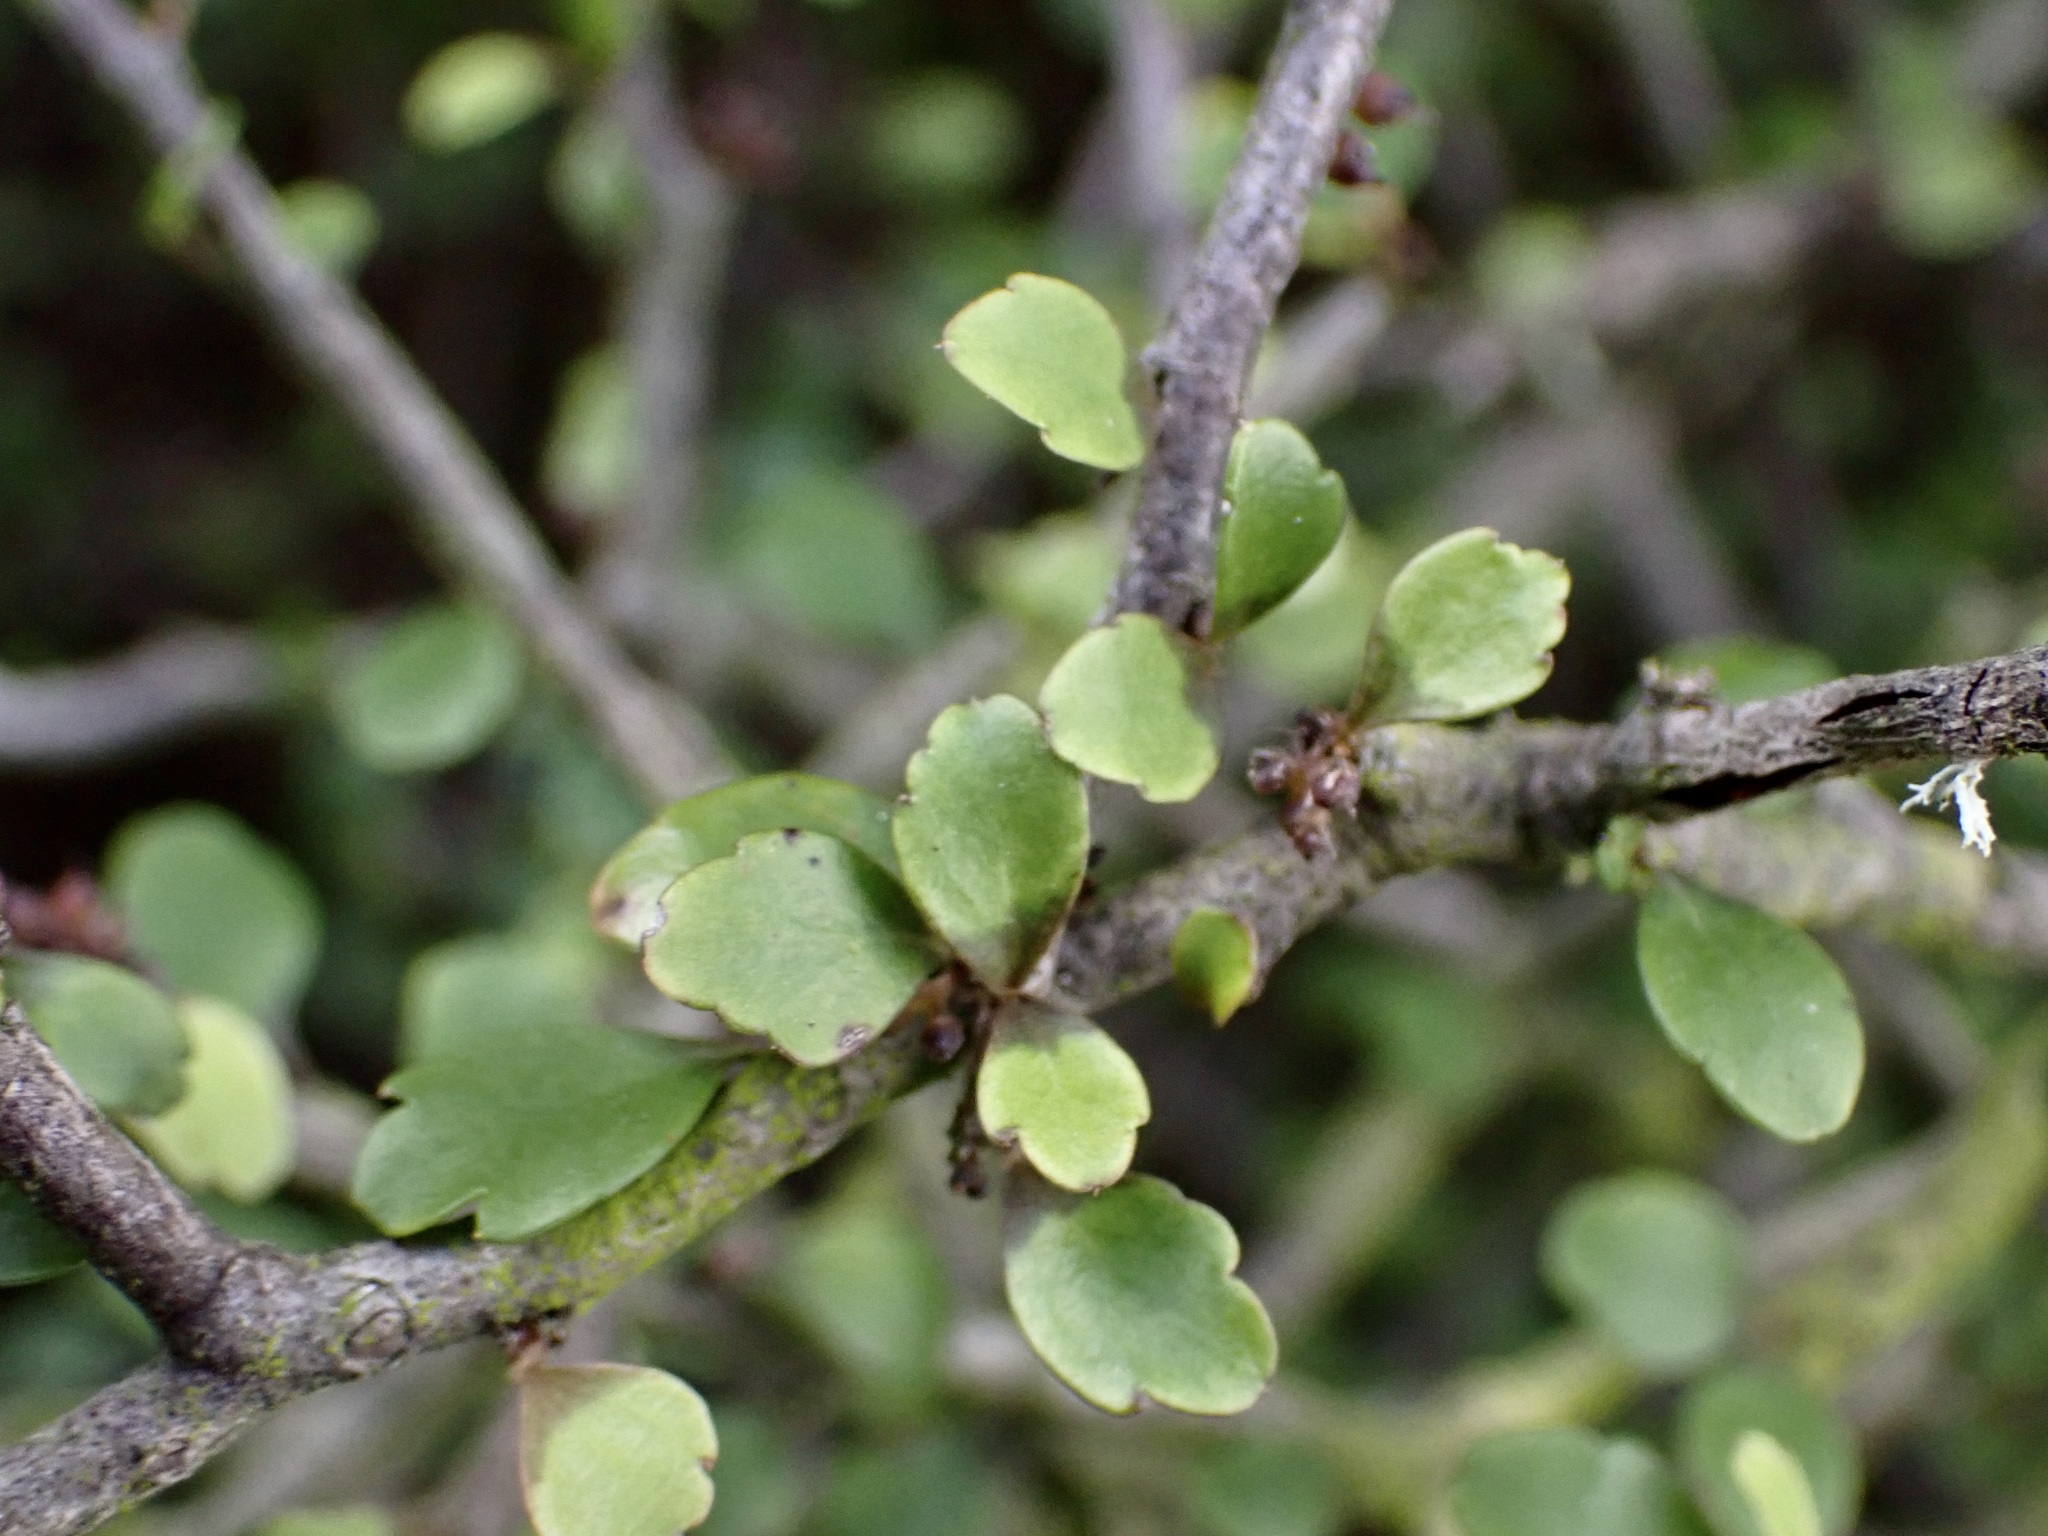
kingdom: Plantae
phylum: Tracheophyta
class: Magnoliopsida
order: Apiales
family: Araliaceae
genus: Raukaua
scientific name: Raukaua anomalus
